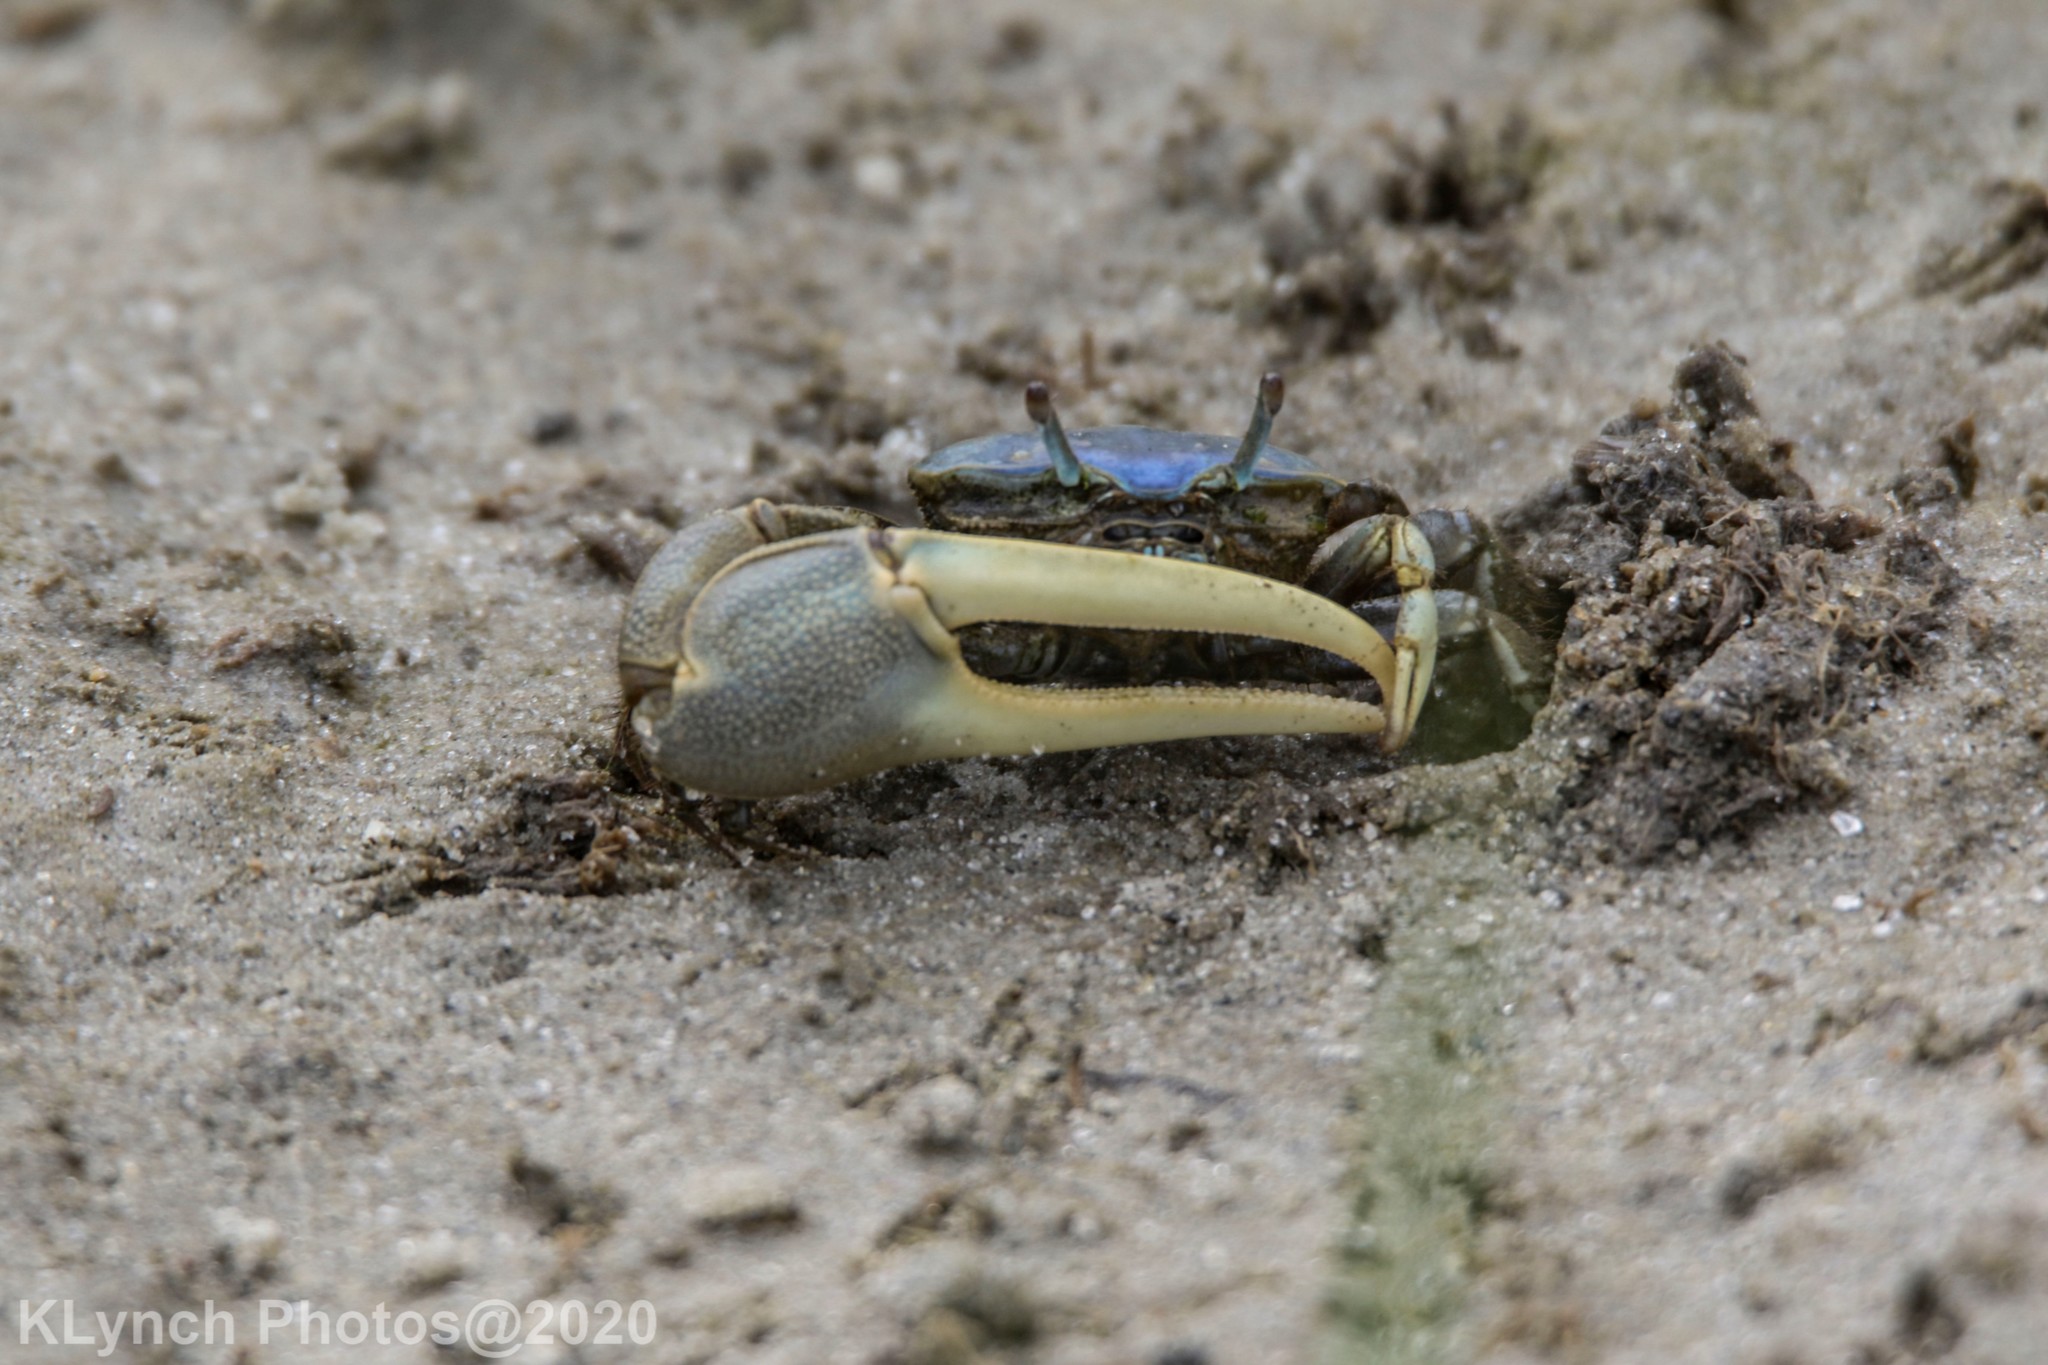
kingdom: Animalia
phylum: Arthropoda
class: Malacostraca
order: Decapoda
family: Ocypodidae
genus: Minuca
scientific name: Minuca pugnax
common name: Mud fiddler crab
